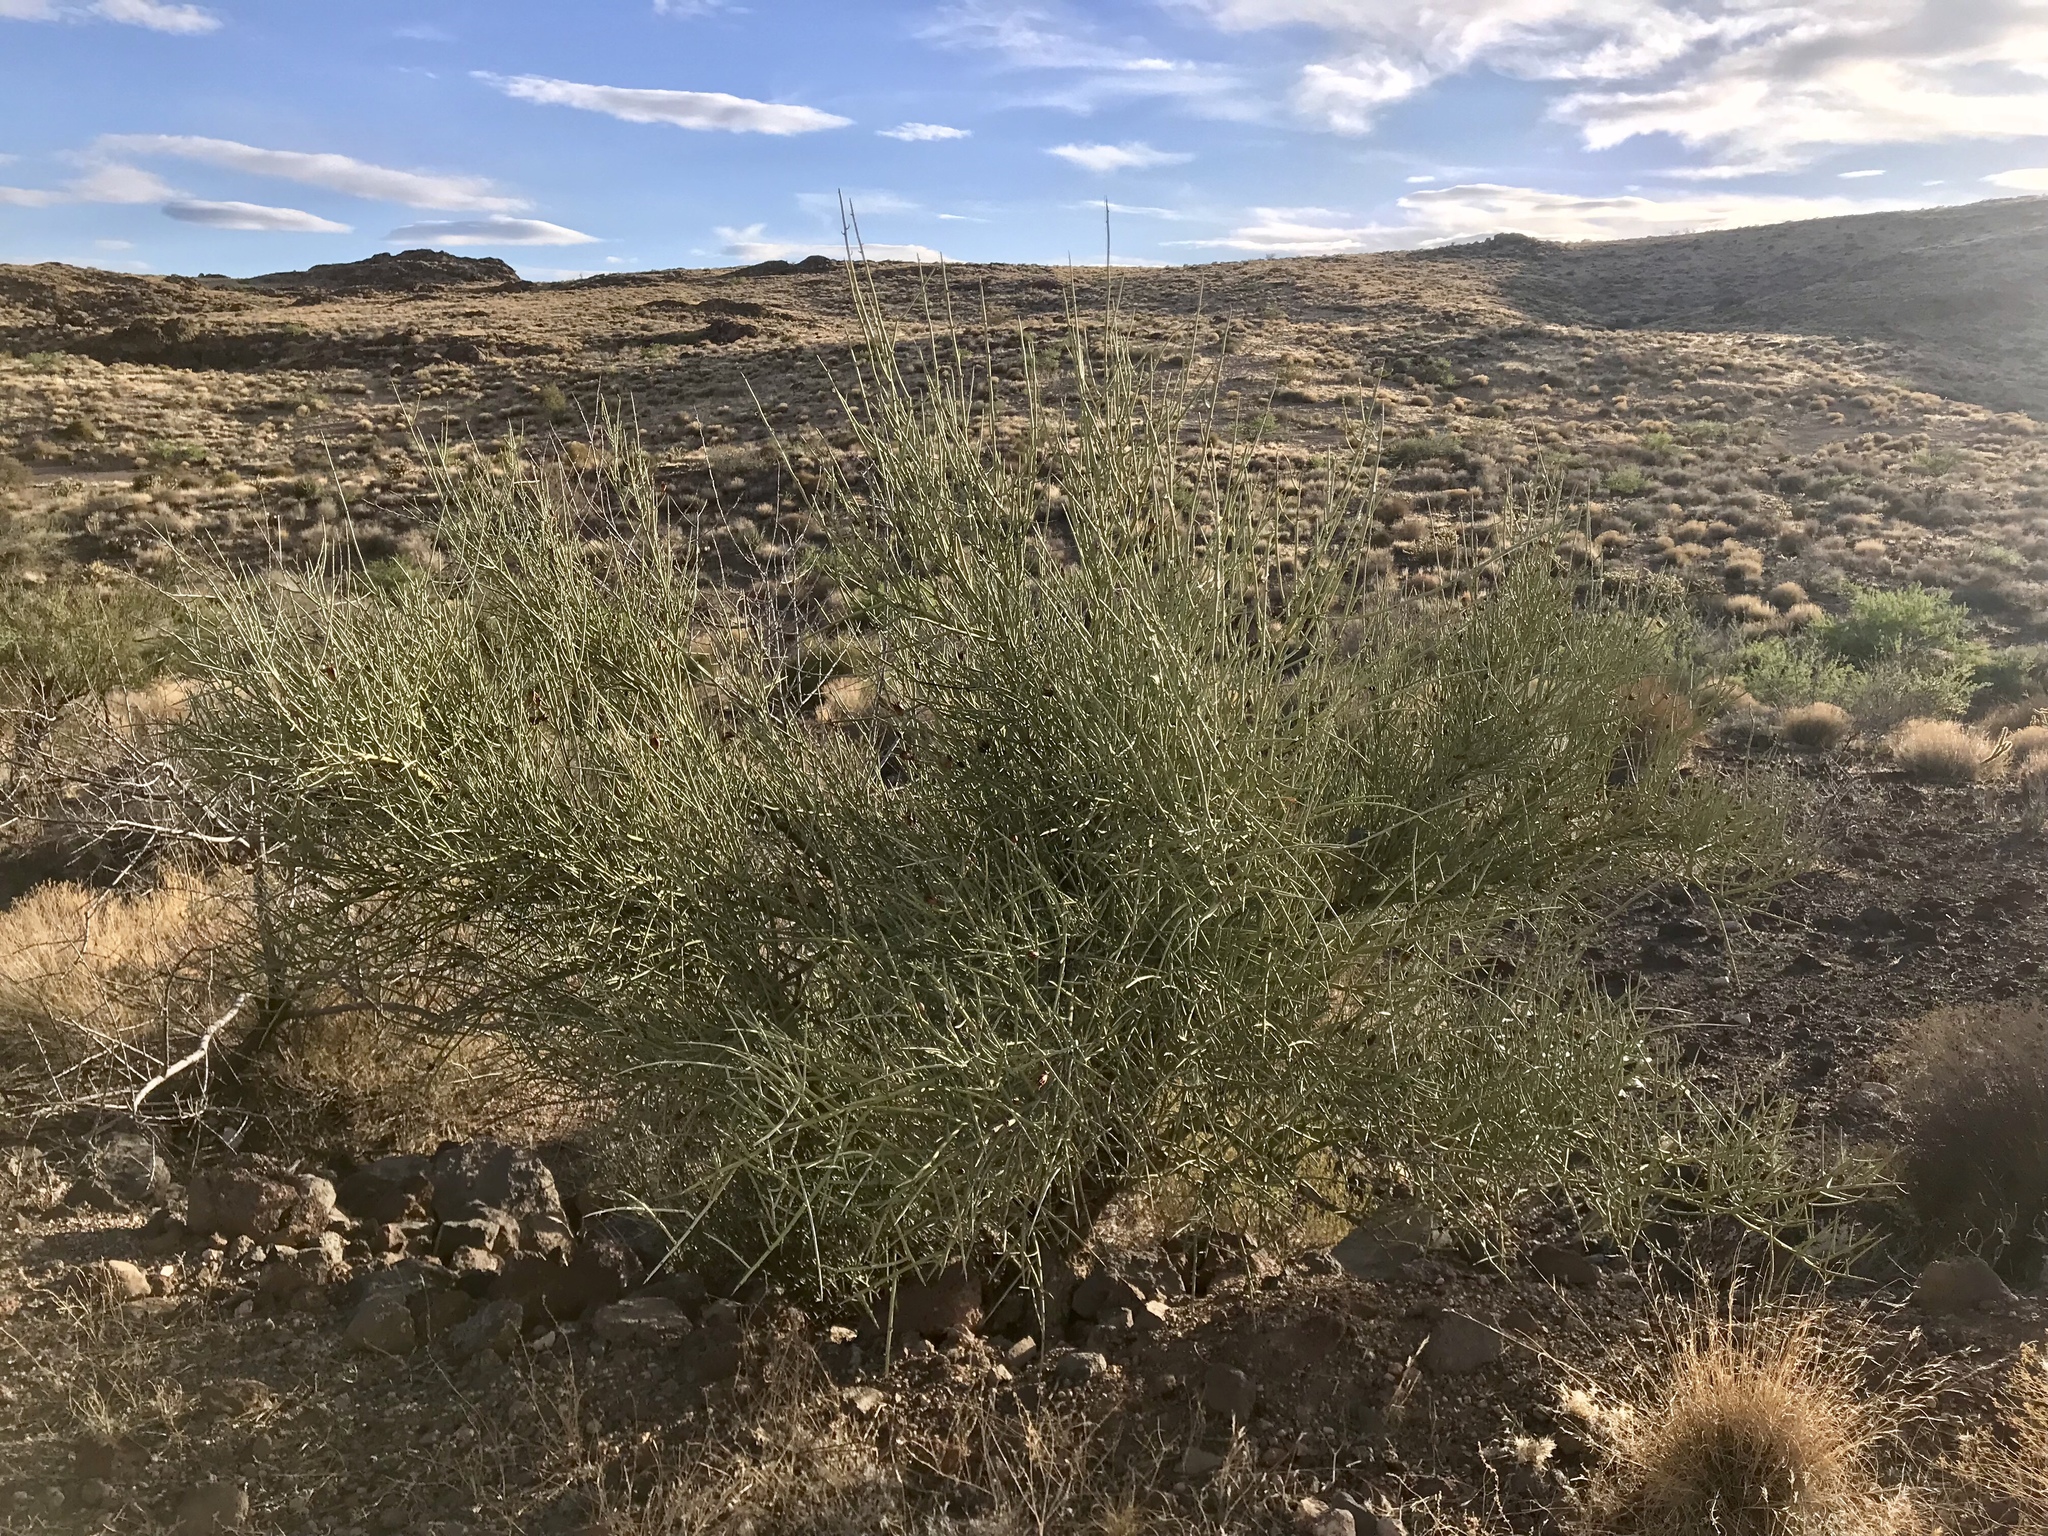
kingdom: Plantae
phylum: Tracheophyta
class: Magnoliopsida
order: Celastrales
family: Celastraceae
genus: Canotia
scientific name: Canotia holacantha
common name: Crucifixion thorns
